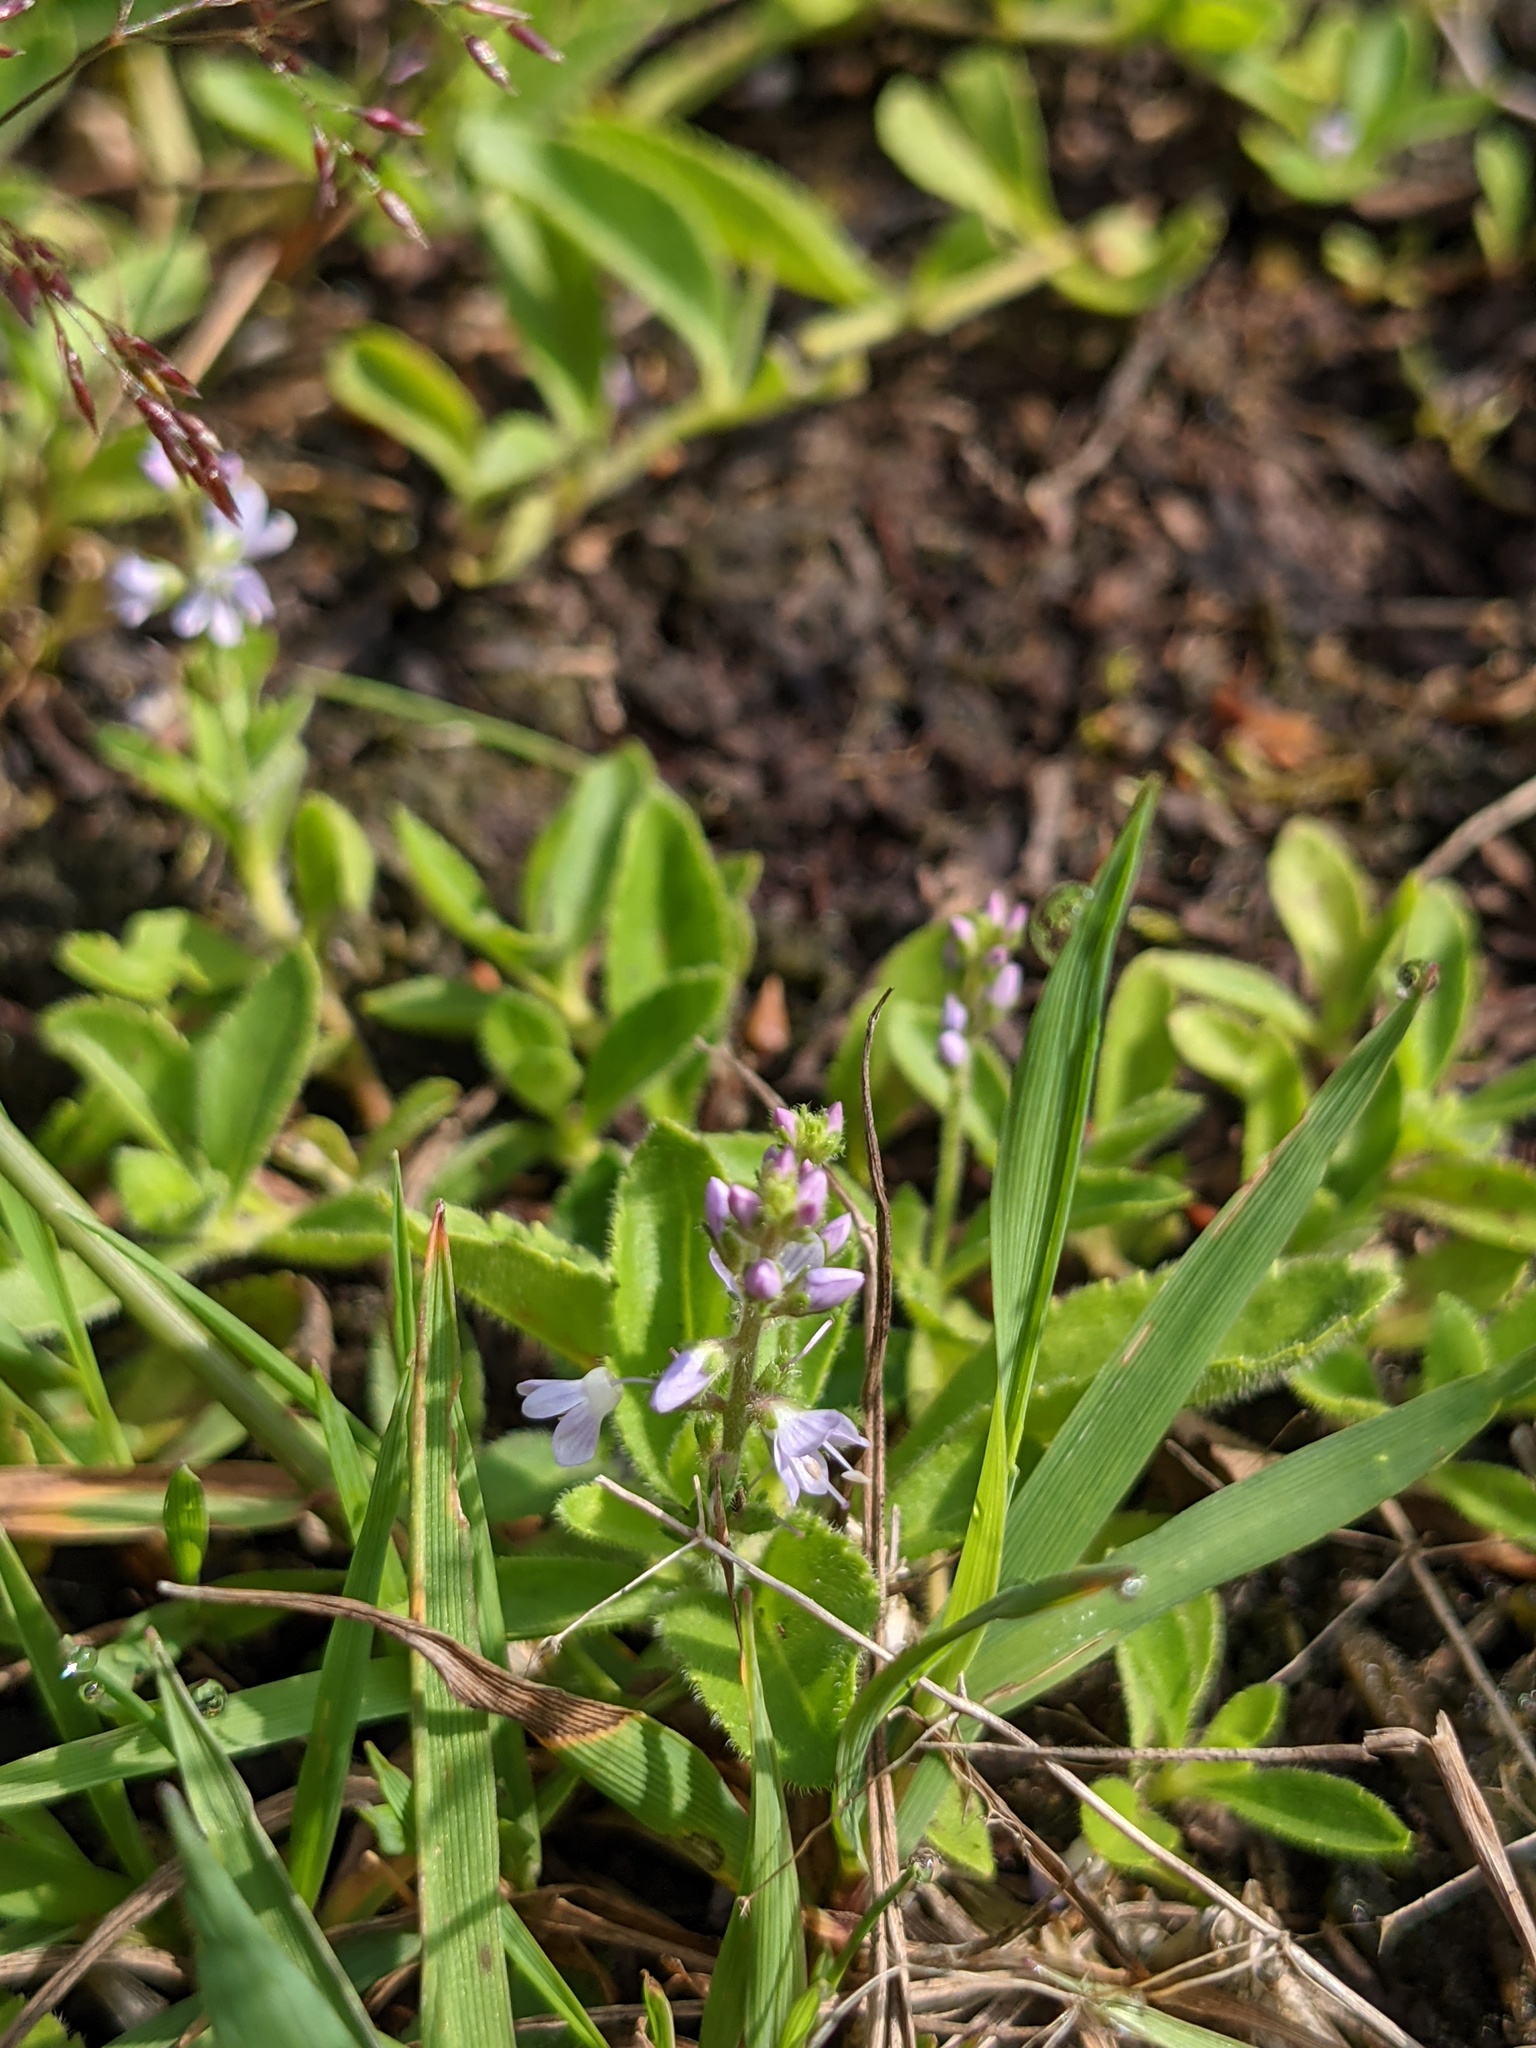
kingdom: Plantae
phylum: Tracheophyta
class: Magnoliopsida
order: Lamiales
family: Plantaginaceae
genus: Veronica
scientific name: Veronica officinalis
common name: Common speedwell
